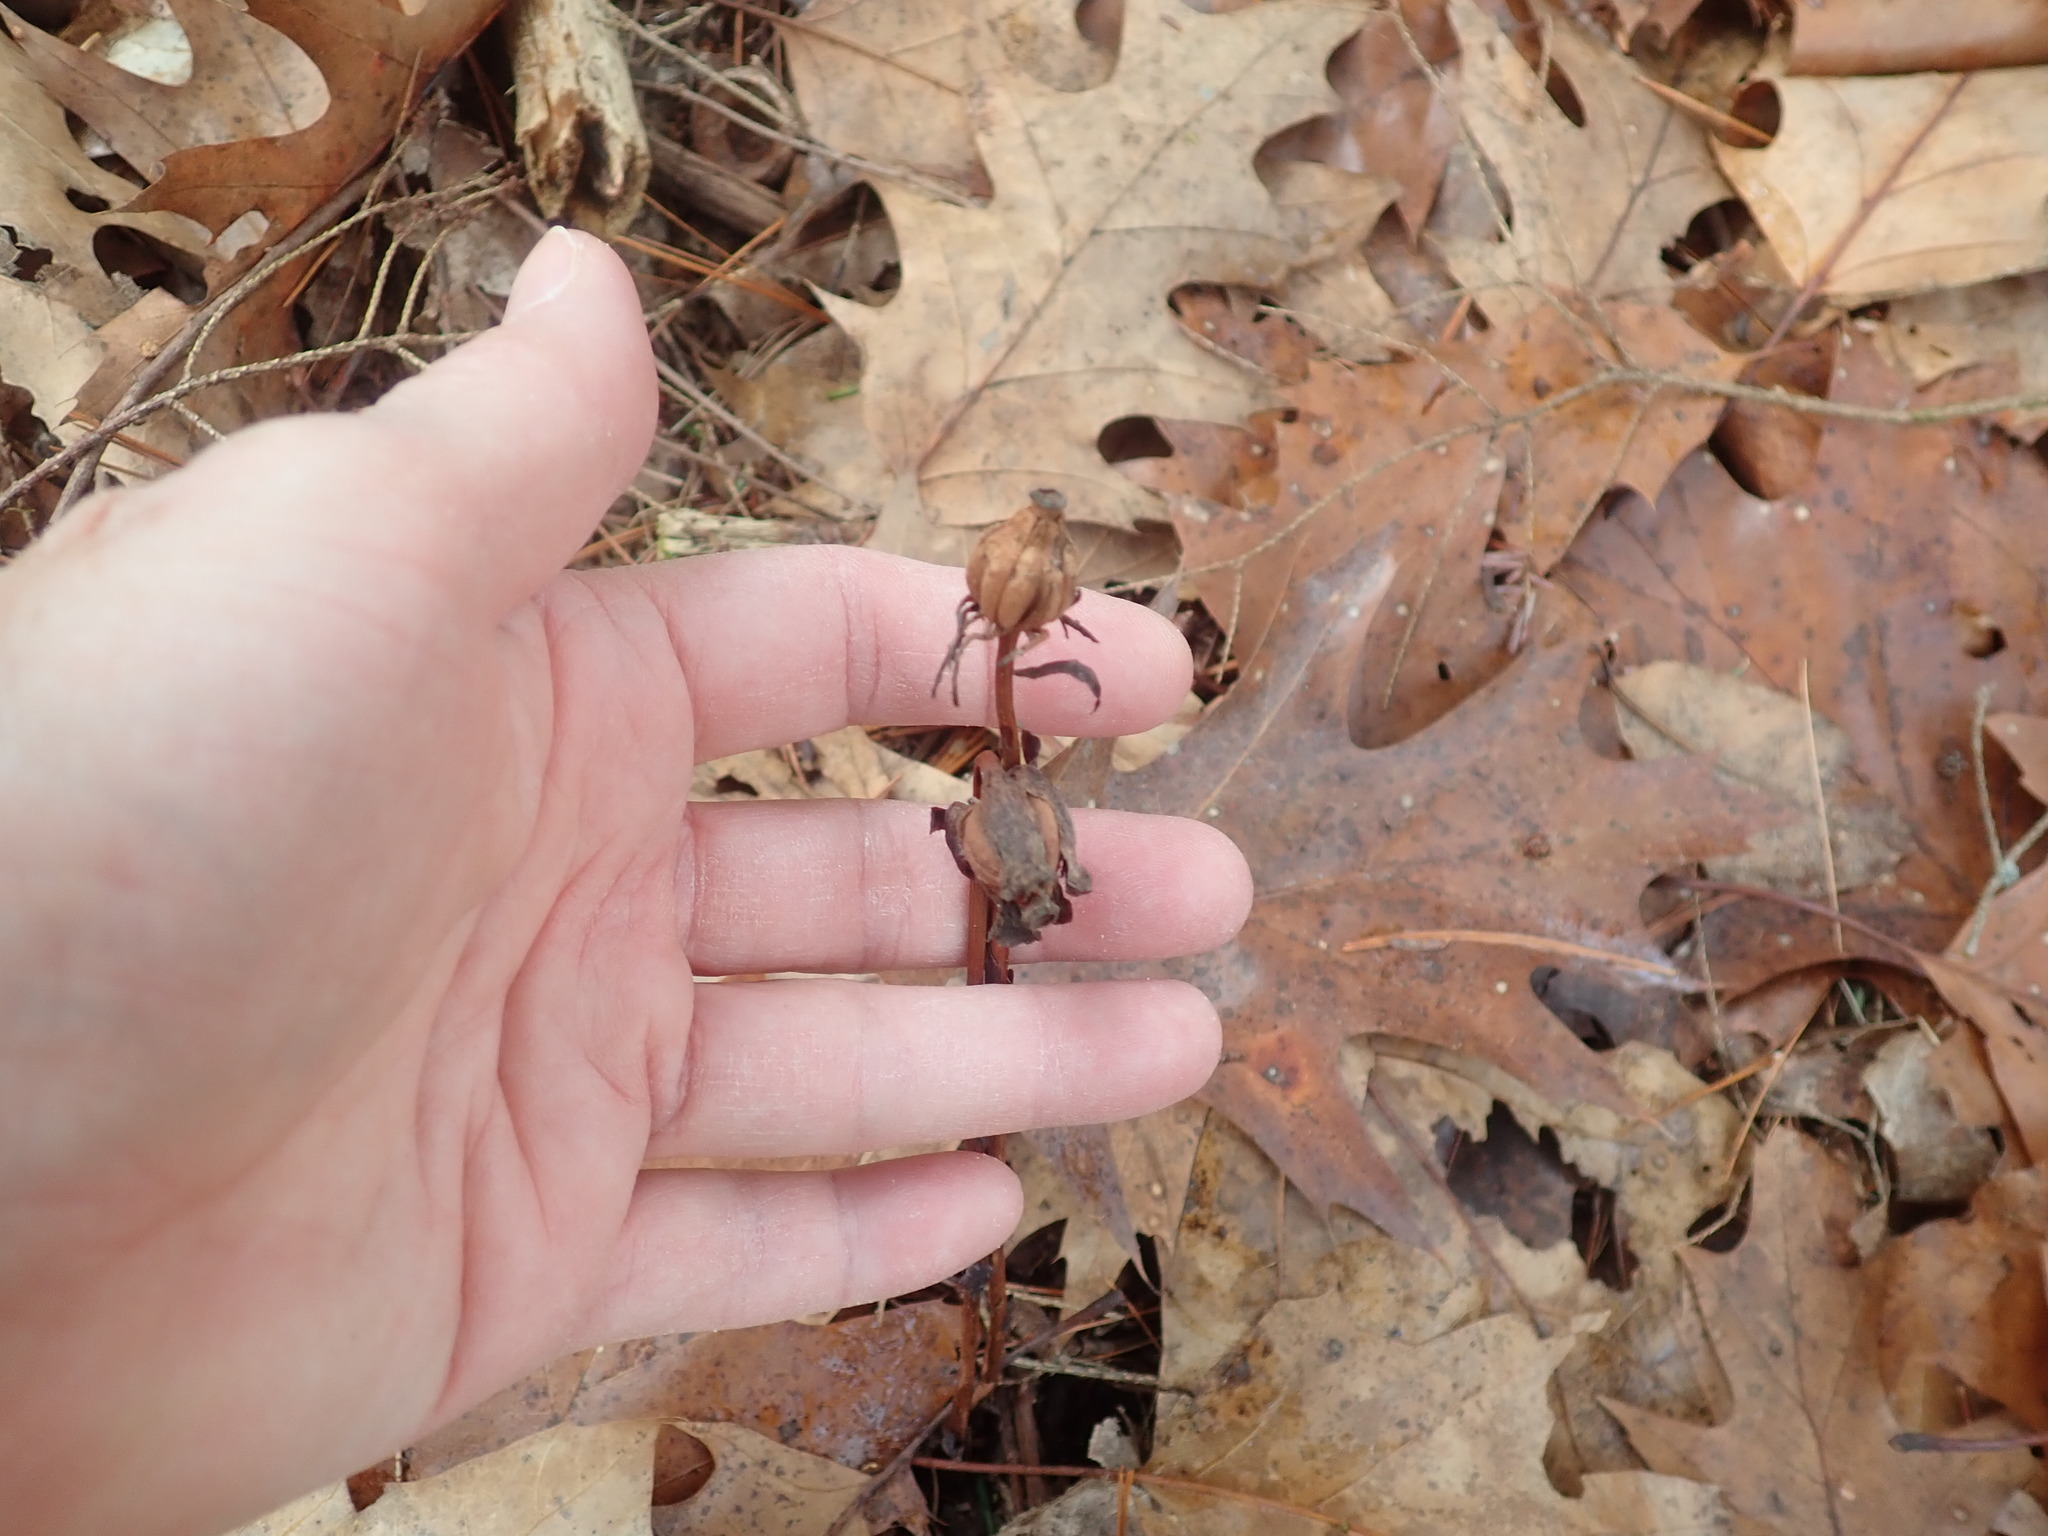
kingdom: Plantae
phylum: Tracheophyta
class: Magnoliopsida
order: Ericales
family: Ericaceae
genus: Monotropa
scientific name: Monotropa uniflora
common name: Convulsion root
